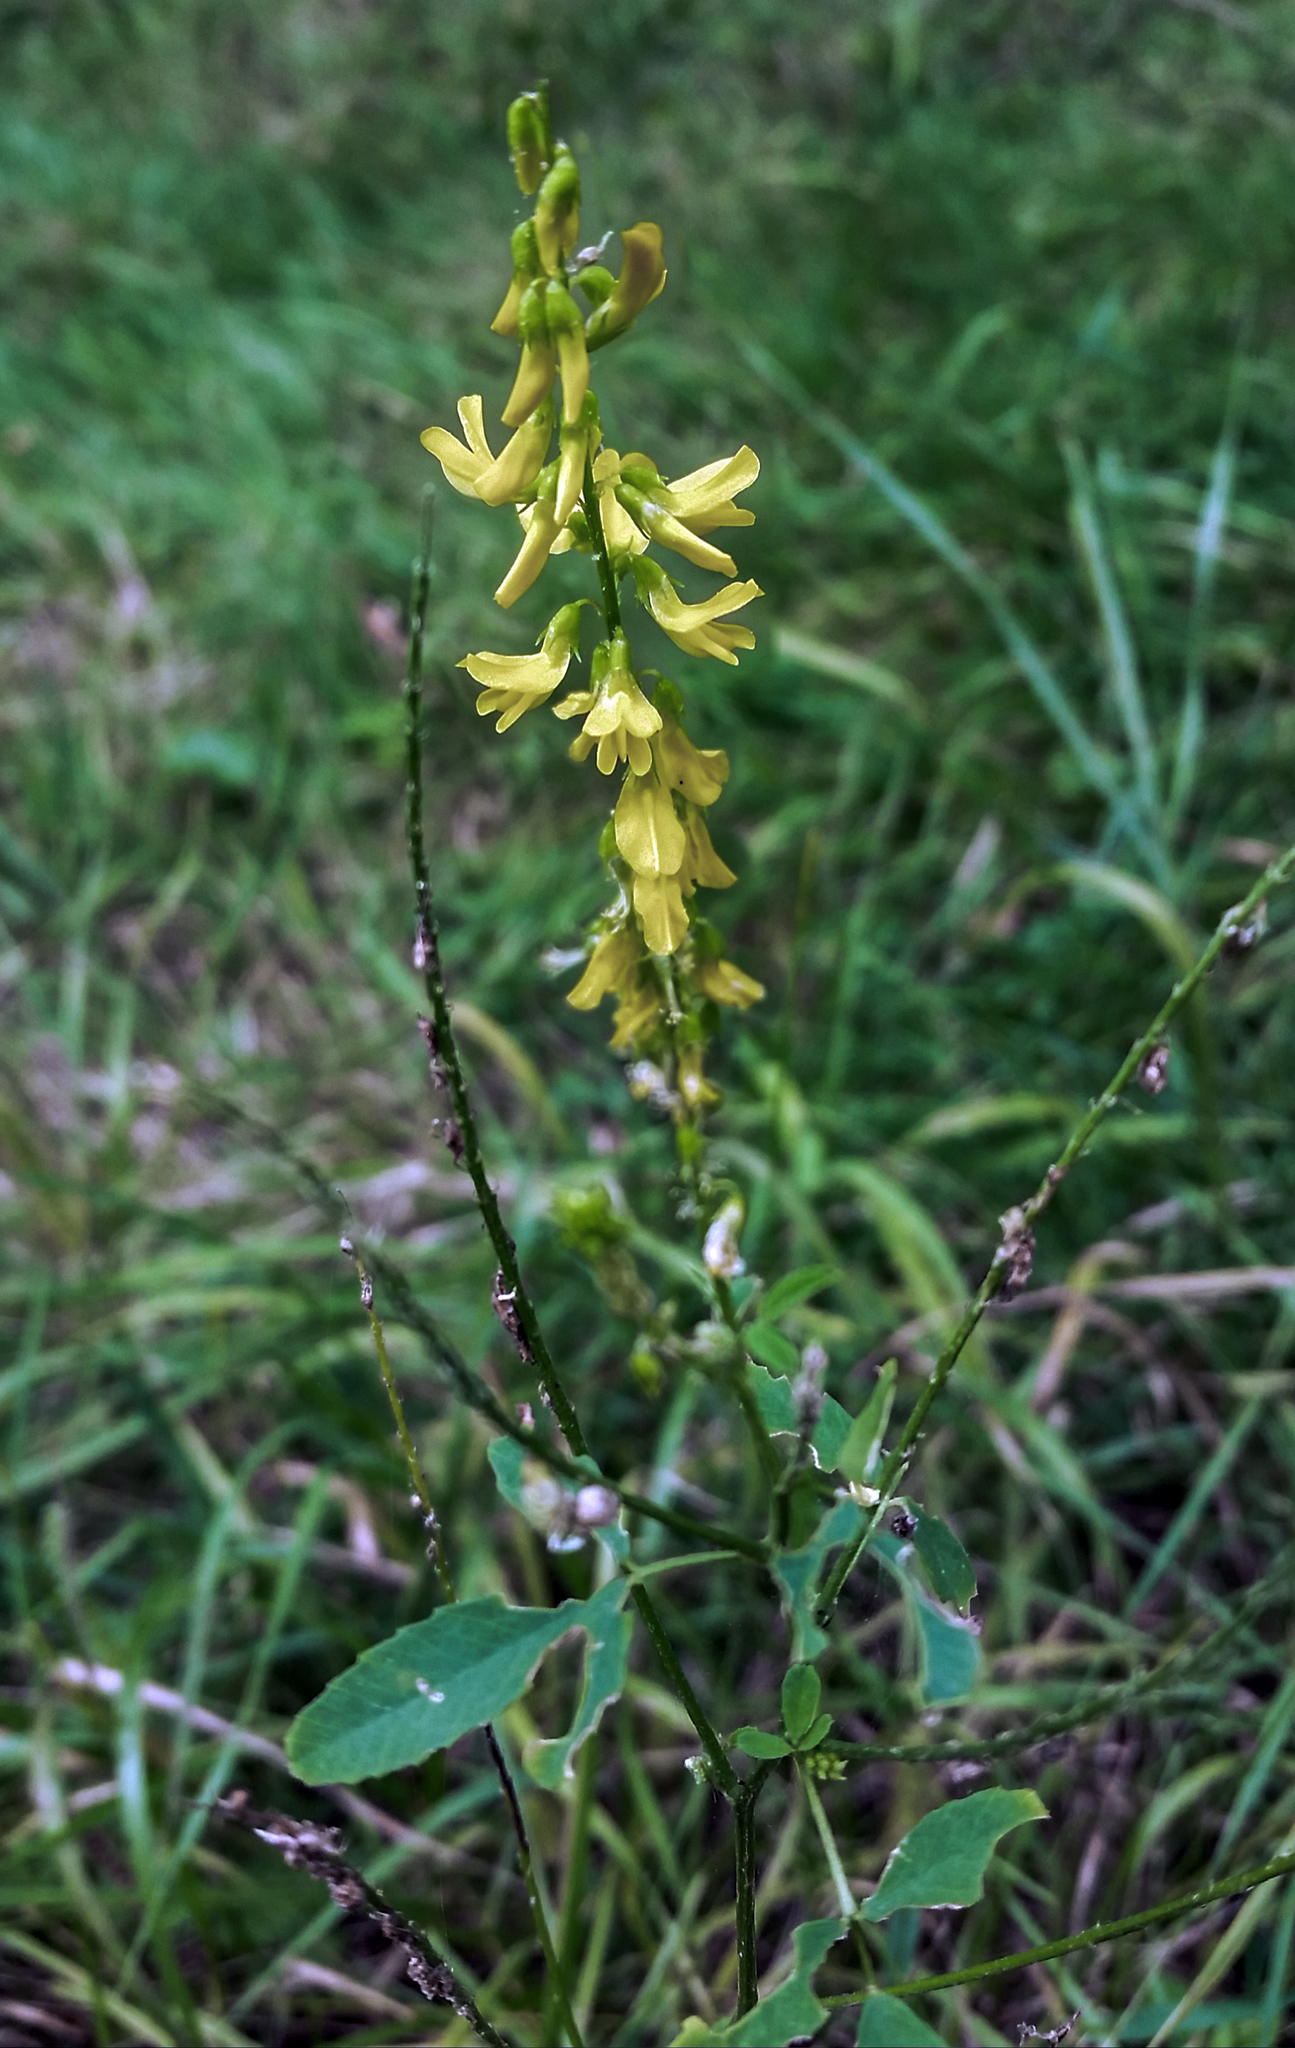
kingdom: Plantae
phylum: Tracheophyta
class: Magnoliopsida
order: Fabales
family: Fabaceae
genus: Melilotus
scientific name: Melilotus officinalis
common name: Sweetclover
